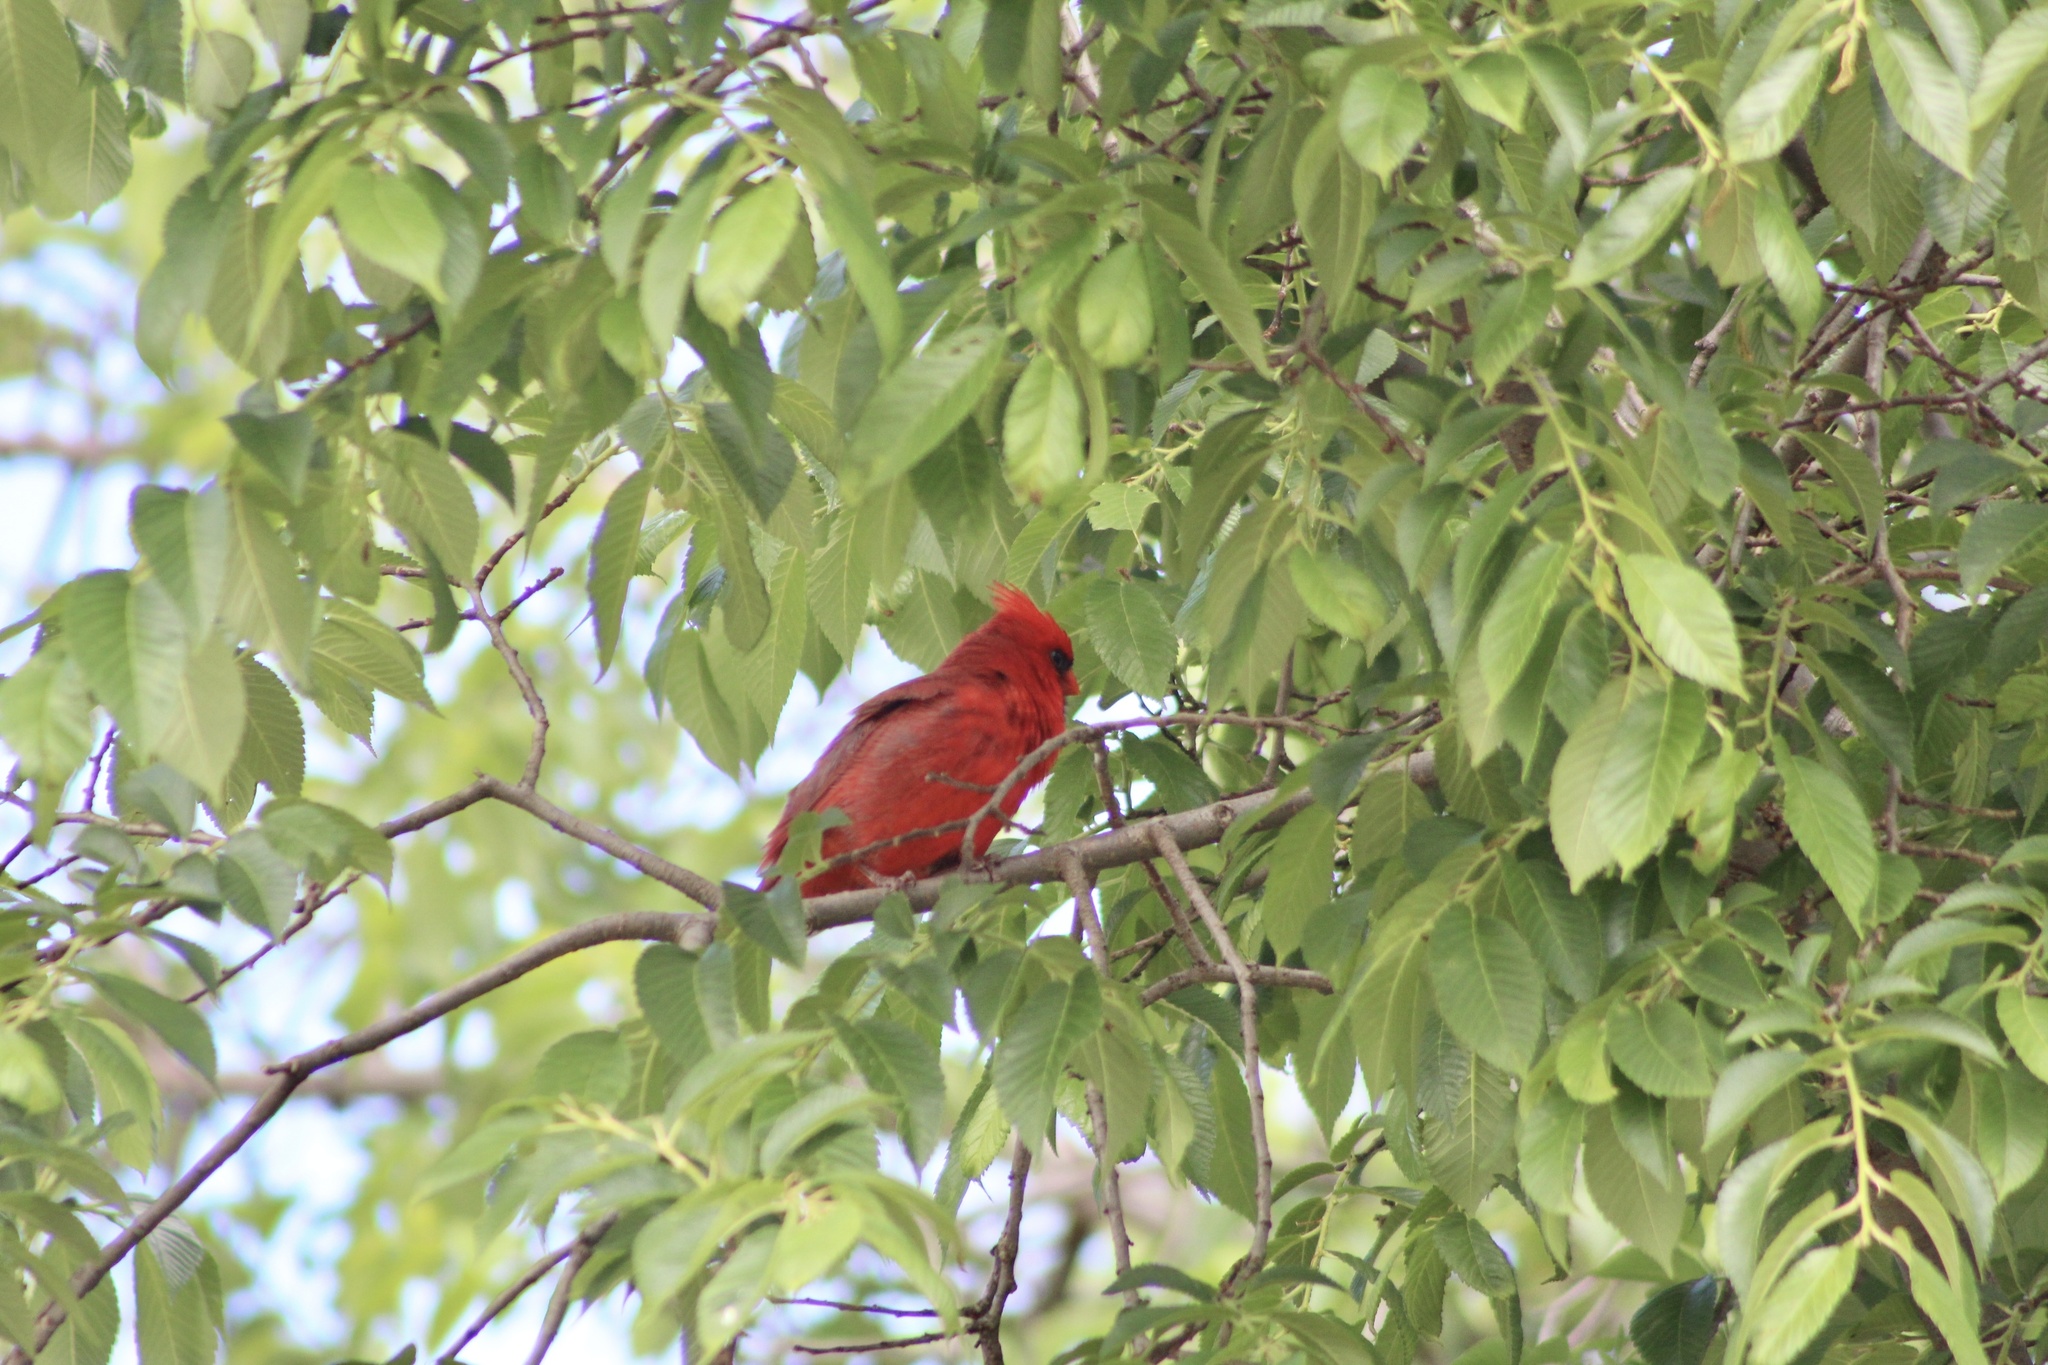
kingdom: Animalia
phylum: Chordata
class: Aves
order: Passeriformes
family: Cardinalidae
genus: Cardinalis
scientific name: Cardinalis cardinalis
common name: Northern cardinal
